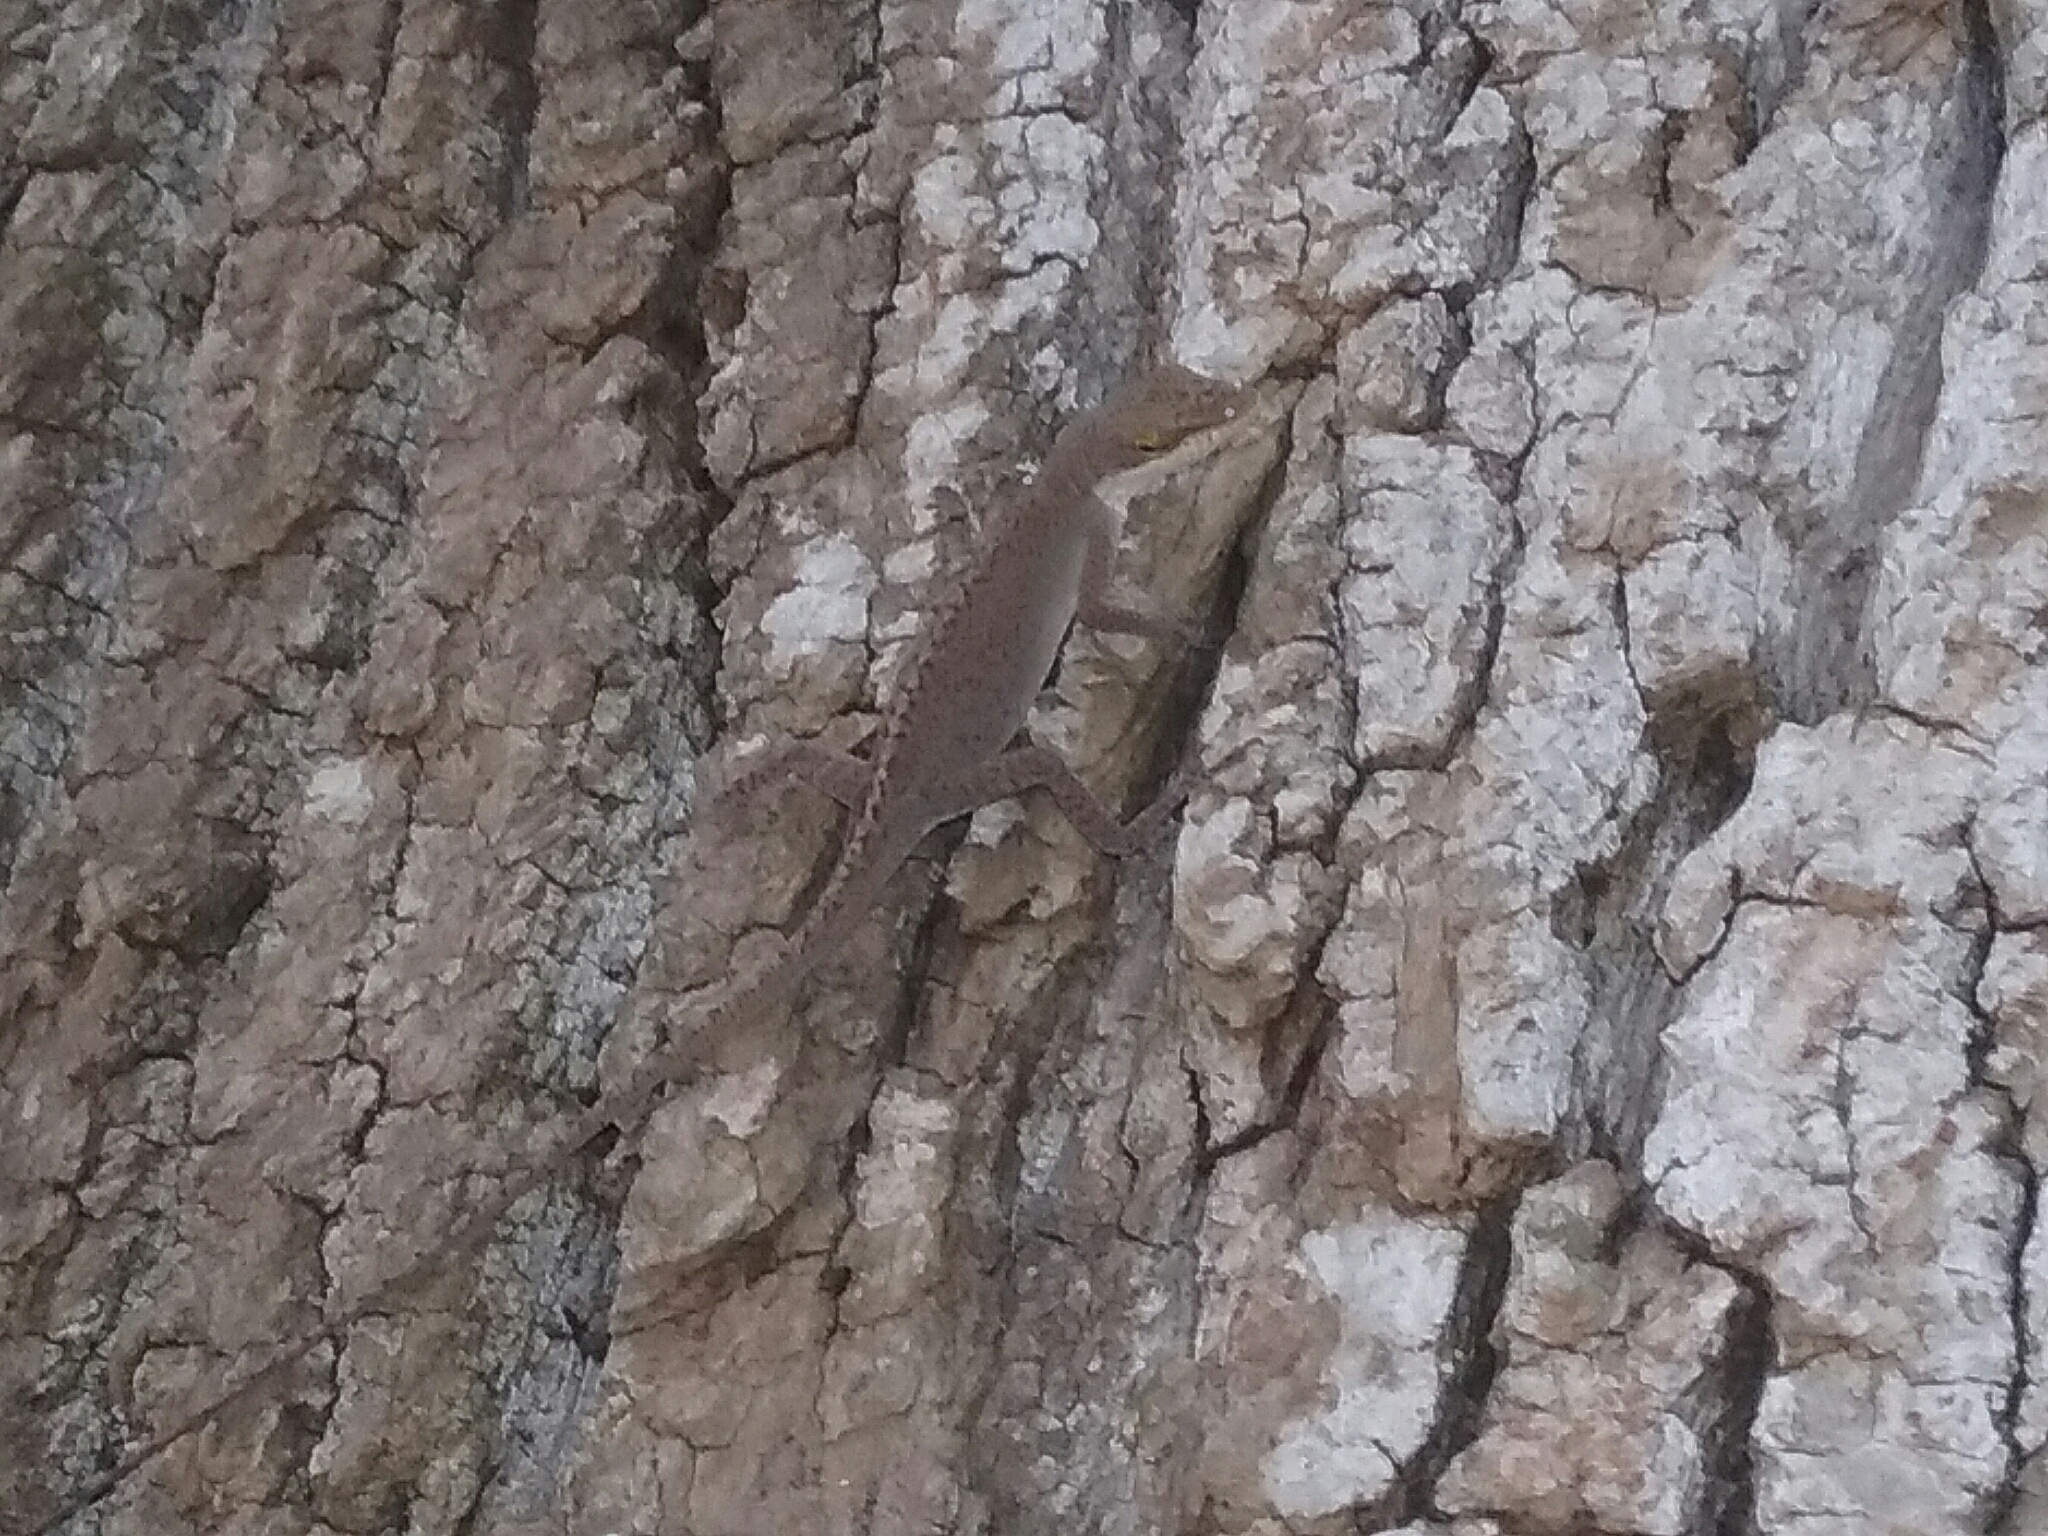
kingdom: Animalia
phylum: Chordata
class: Squamata
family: Dactyloidae
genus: Anolis
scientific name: Anolis carolinensis
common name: Green anole
